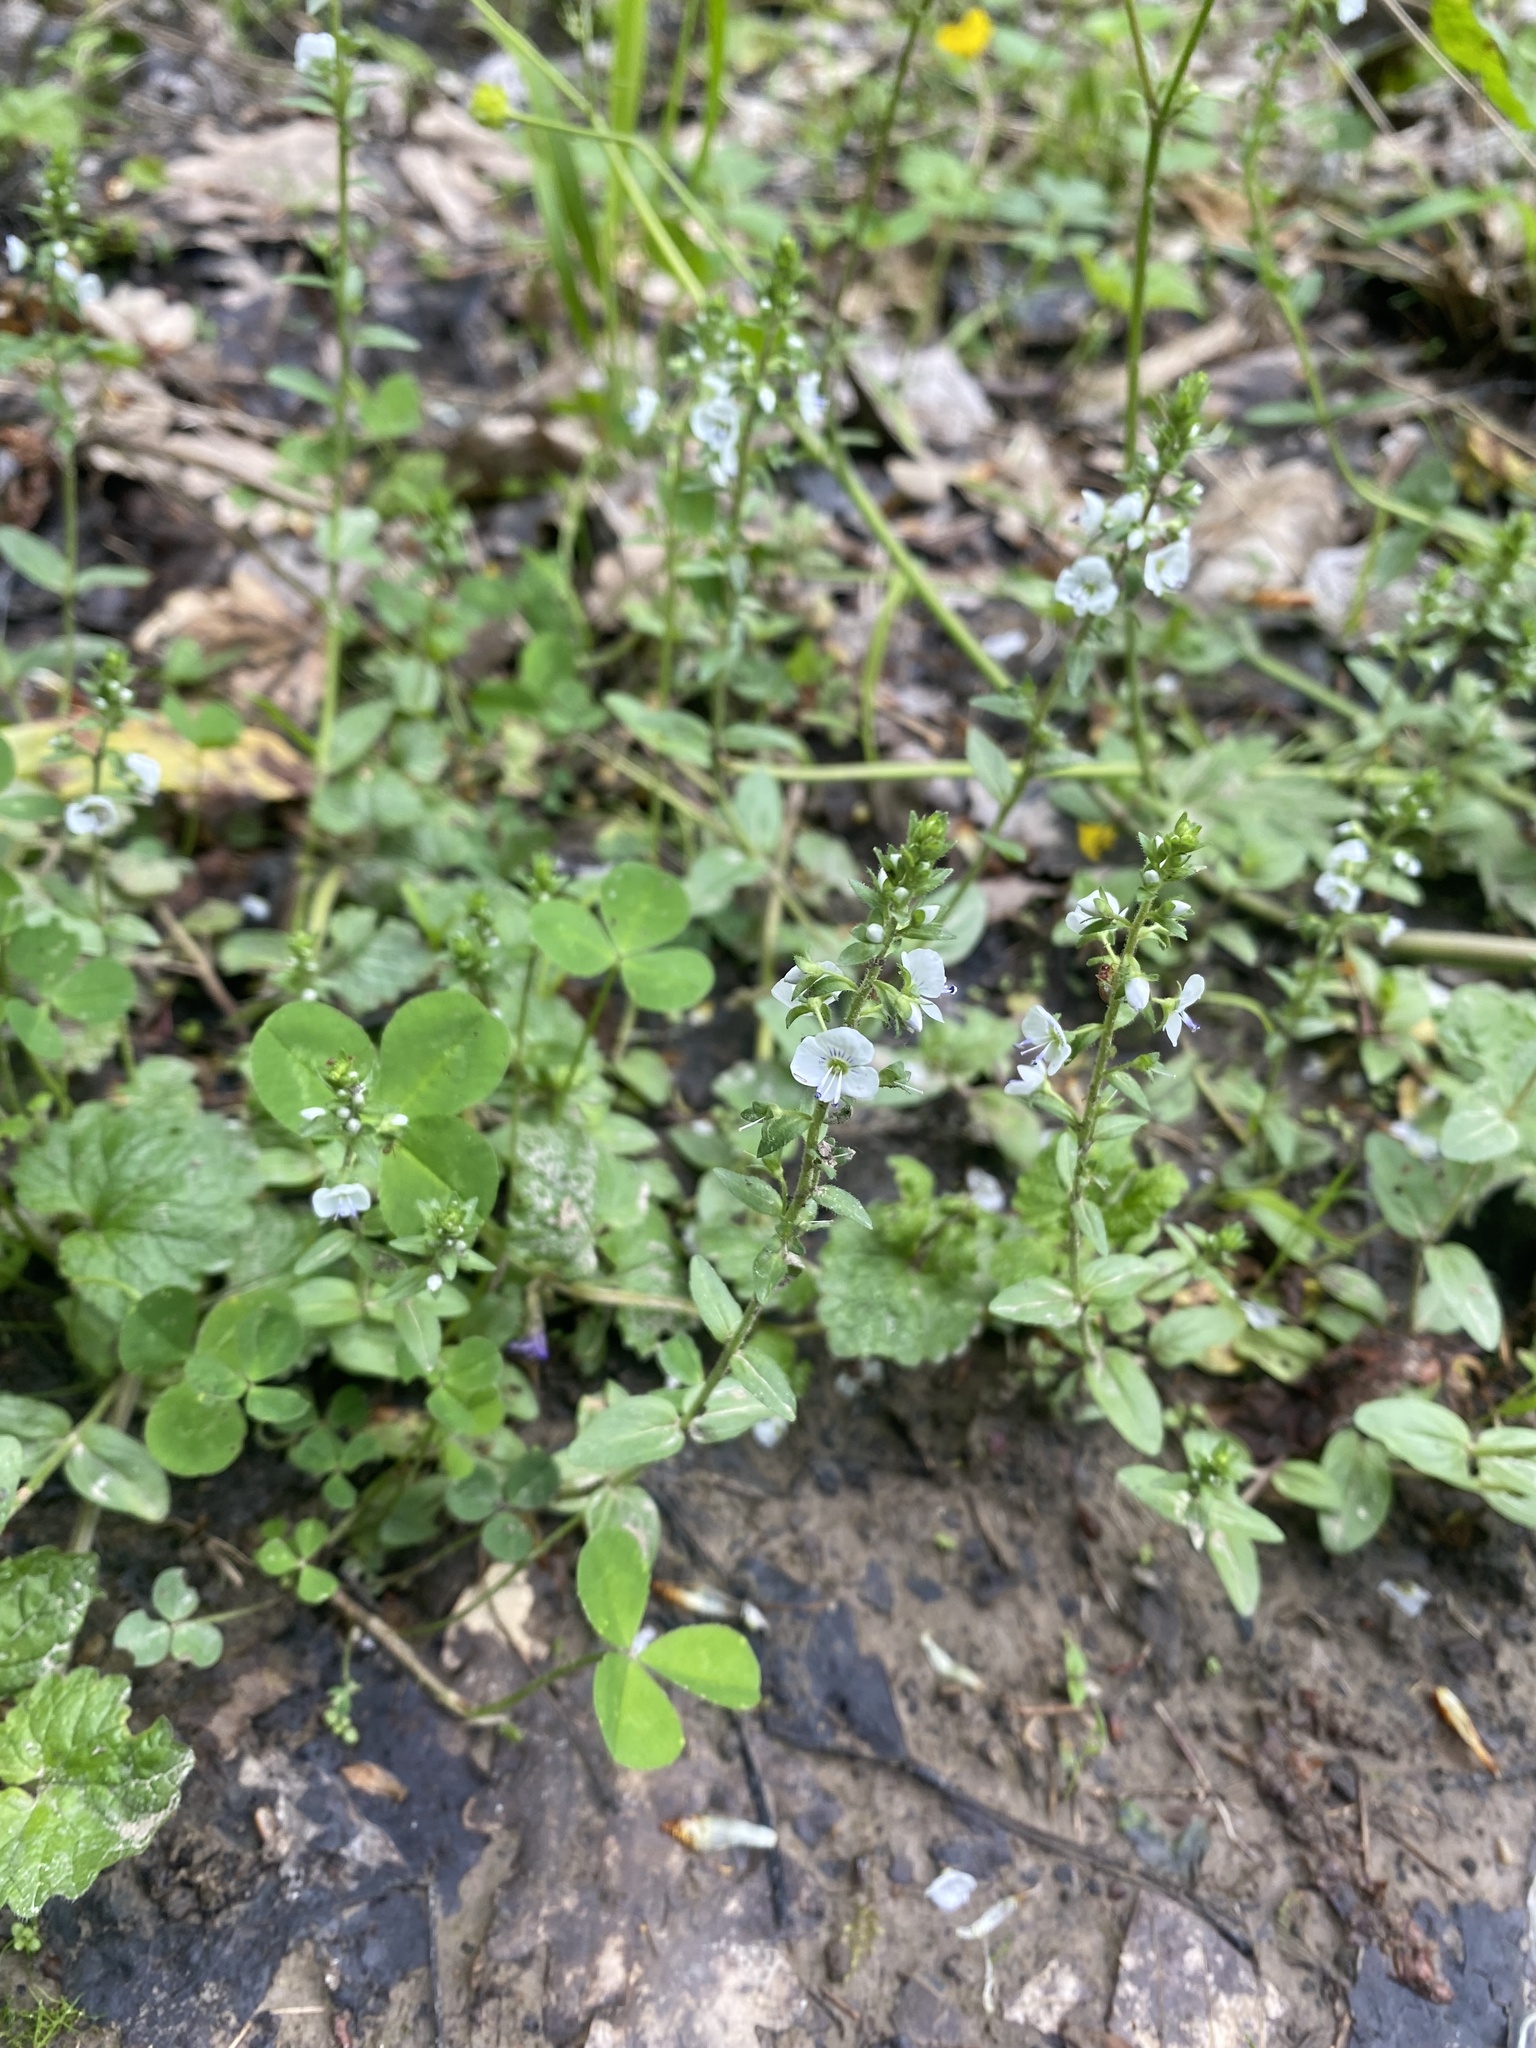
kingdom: Plantae
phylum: Tracheophyta
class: Magnoliopsida
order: Lamiales
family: Plantaginaceae
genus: Veronica
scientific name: Veronica serpyllifolia
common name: Thyme-leaved speedwell
